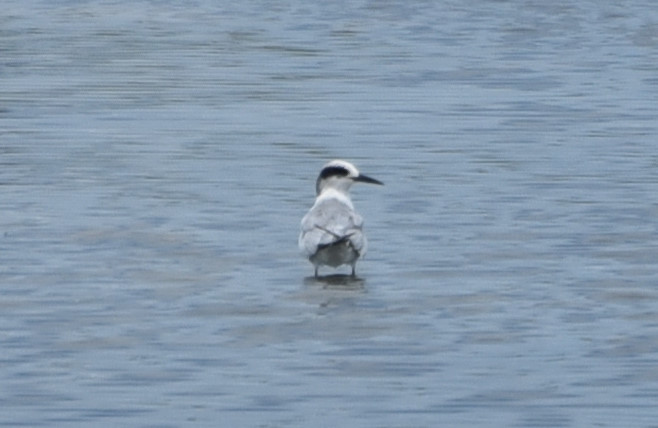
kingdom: Animalia
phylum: Chordata
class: Aves
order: Charadriiformes
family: Laridae
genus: Sterna
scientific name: Sterna forsteri
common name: Forster's tern
